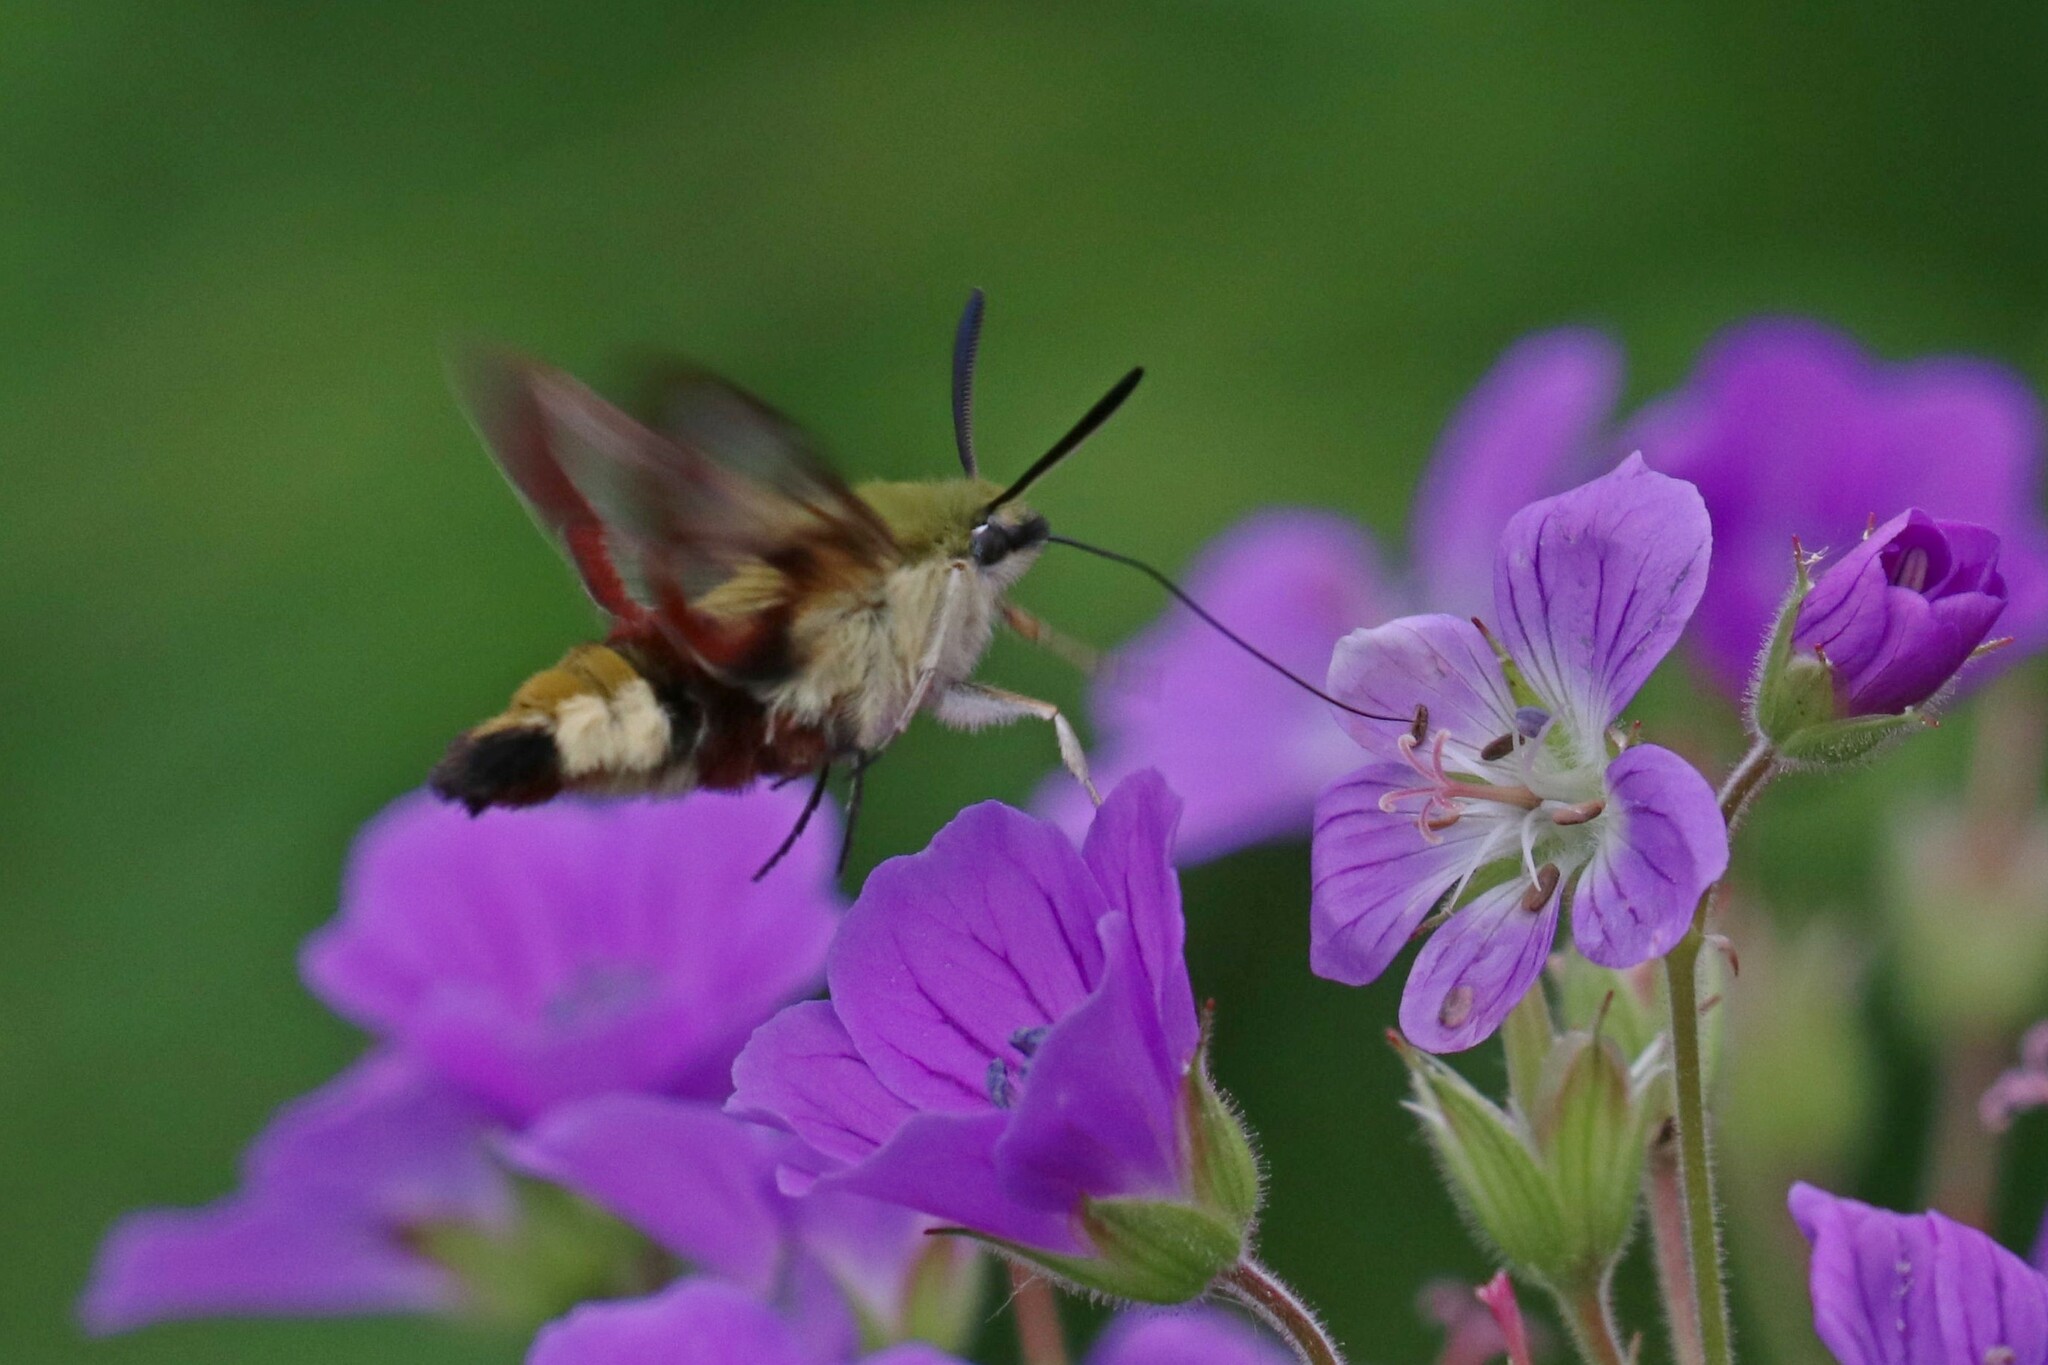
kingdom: Animalia
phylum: Arthropoda
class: Insecta
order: Lepidoptera
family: Sphingidae
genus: Hemaris
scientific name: Hemaris fuciformis
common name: Broad-bordered bee hawk-moth
